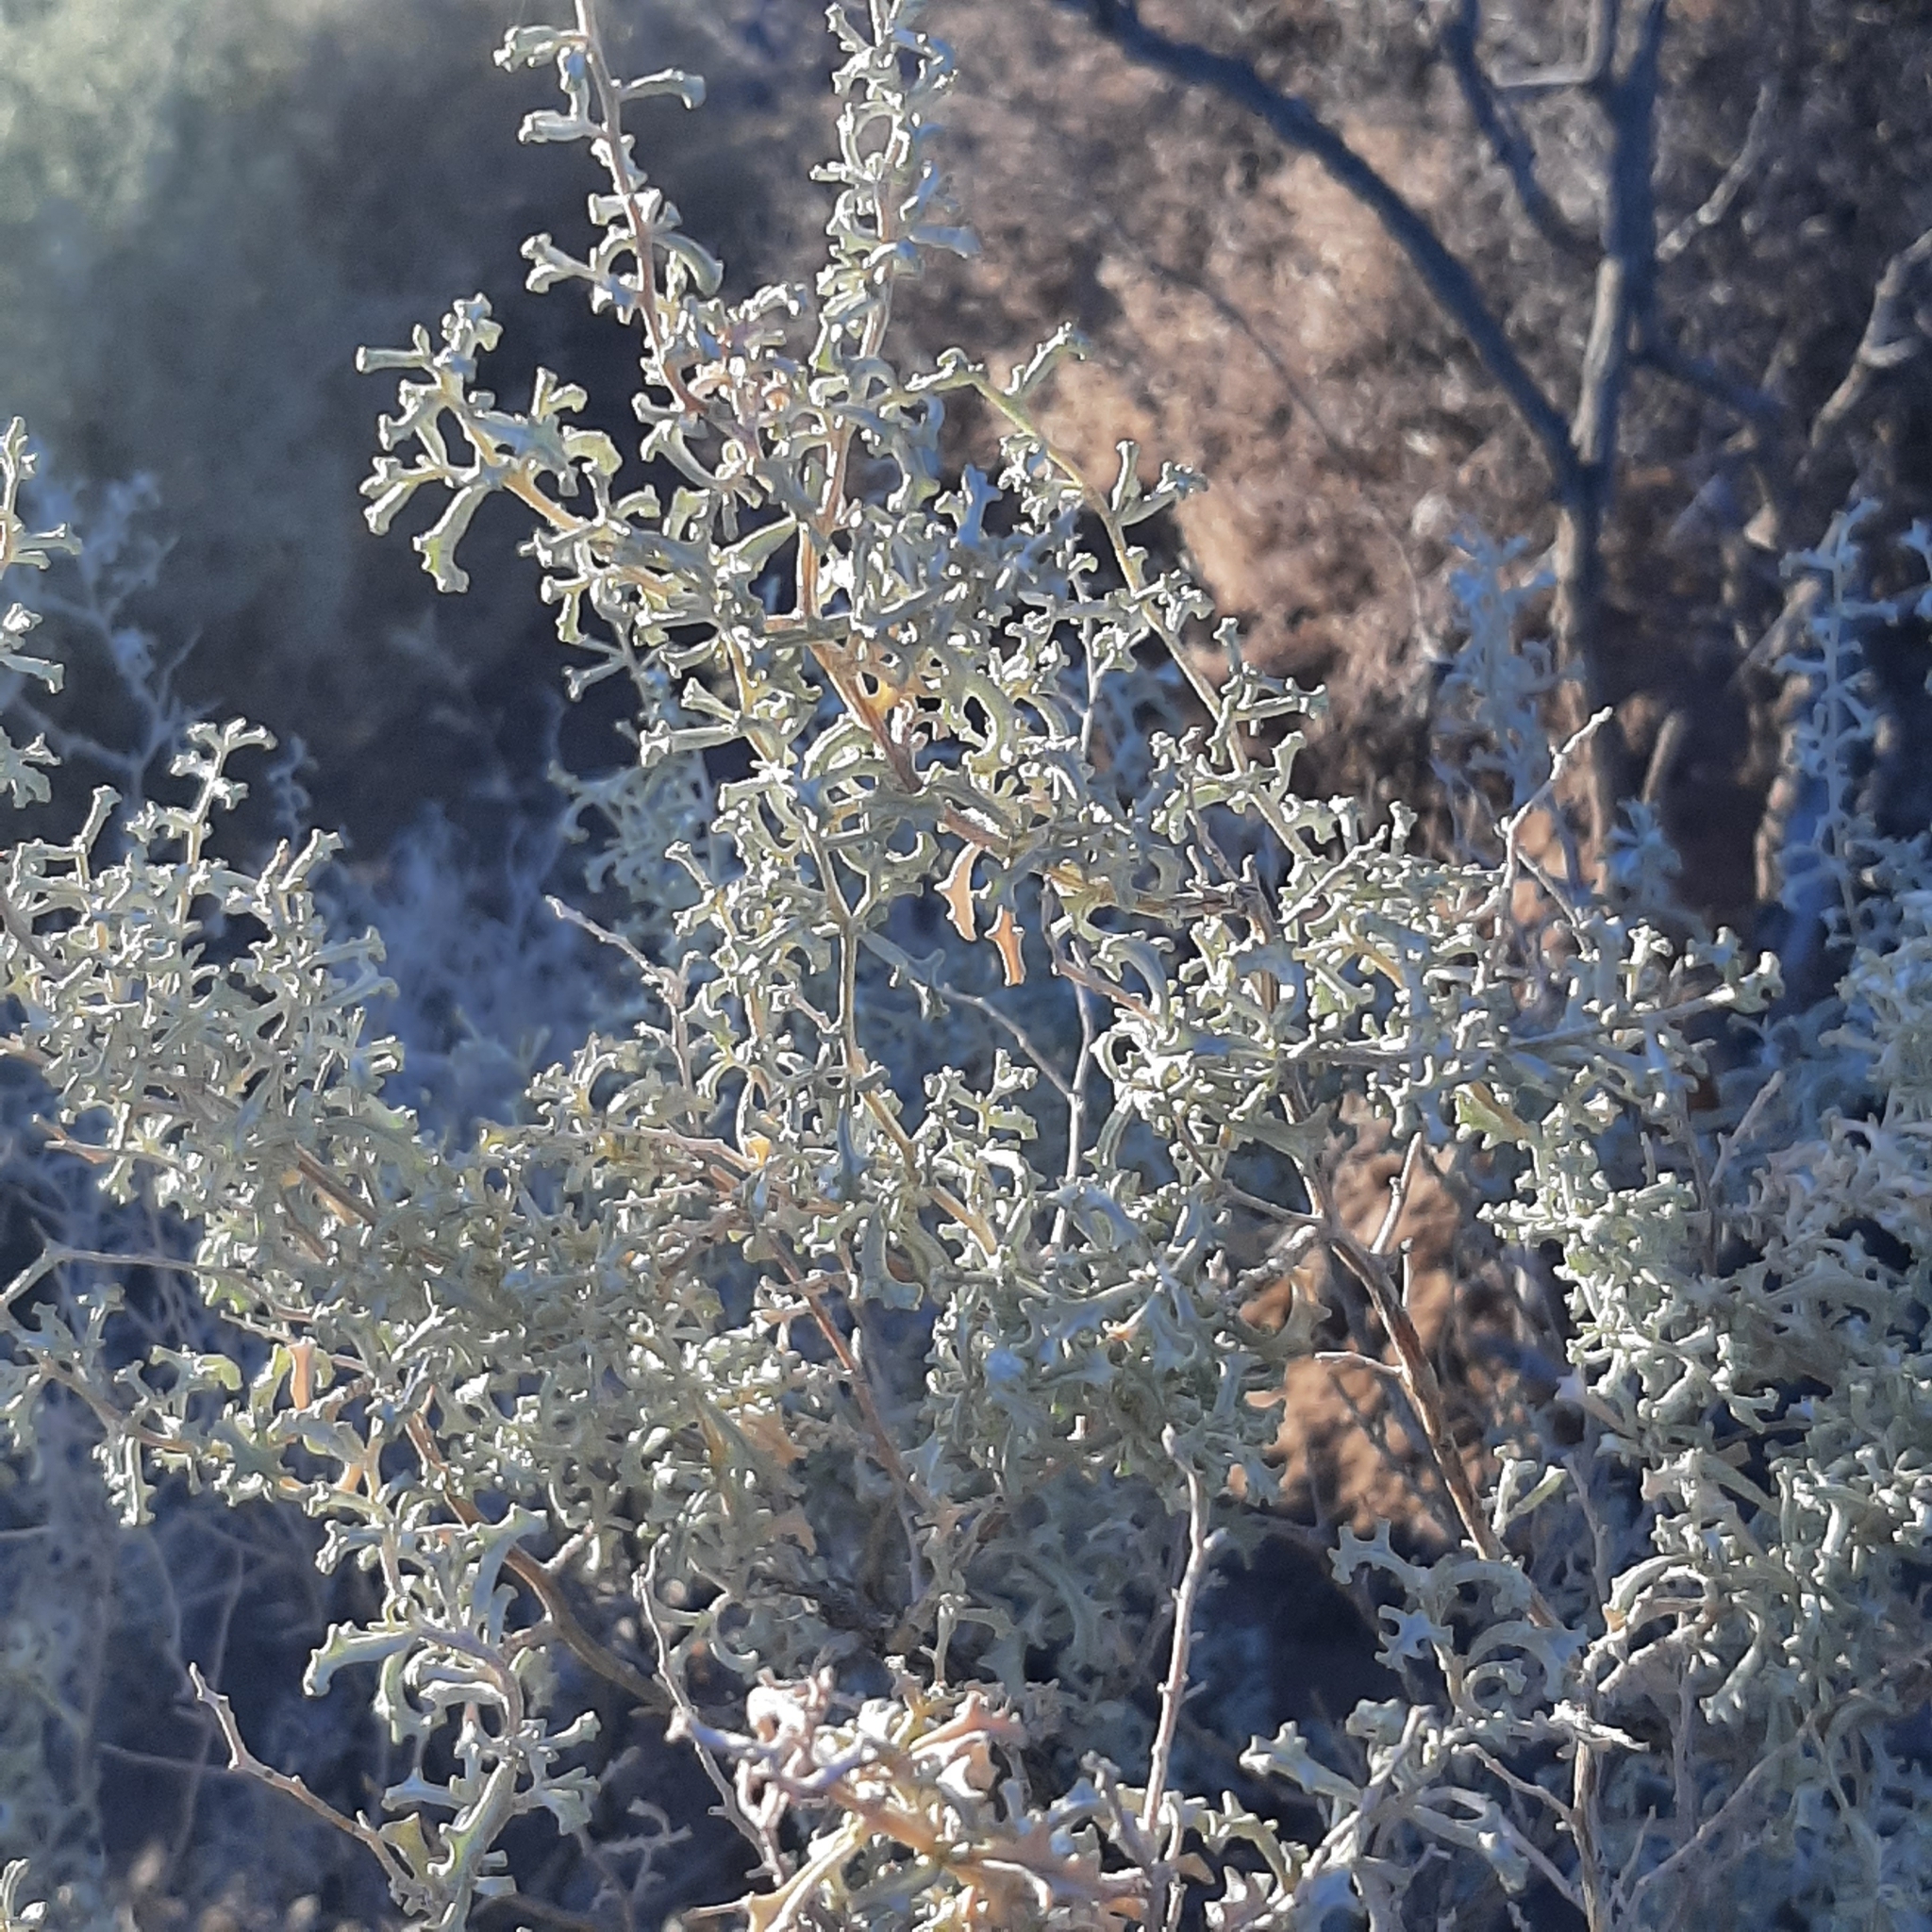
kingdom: Plantae
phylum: Tracheophyta
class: Magnoliopsida
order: Caryophyllales
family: Amaranthaceae
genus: Atriplex
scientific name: Atriplex lampa
